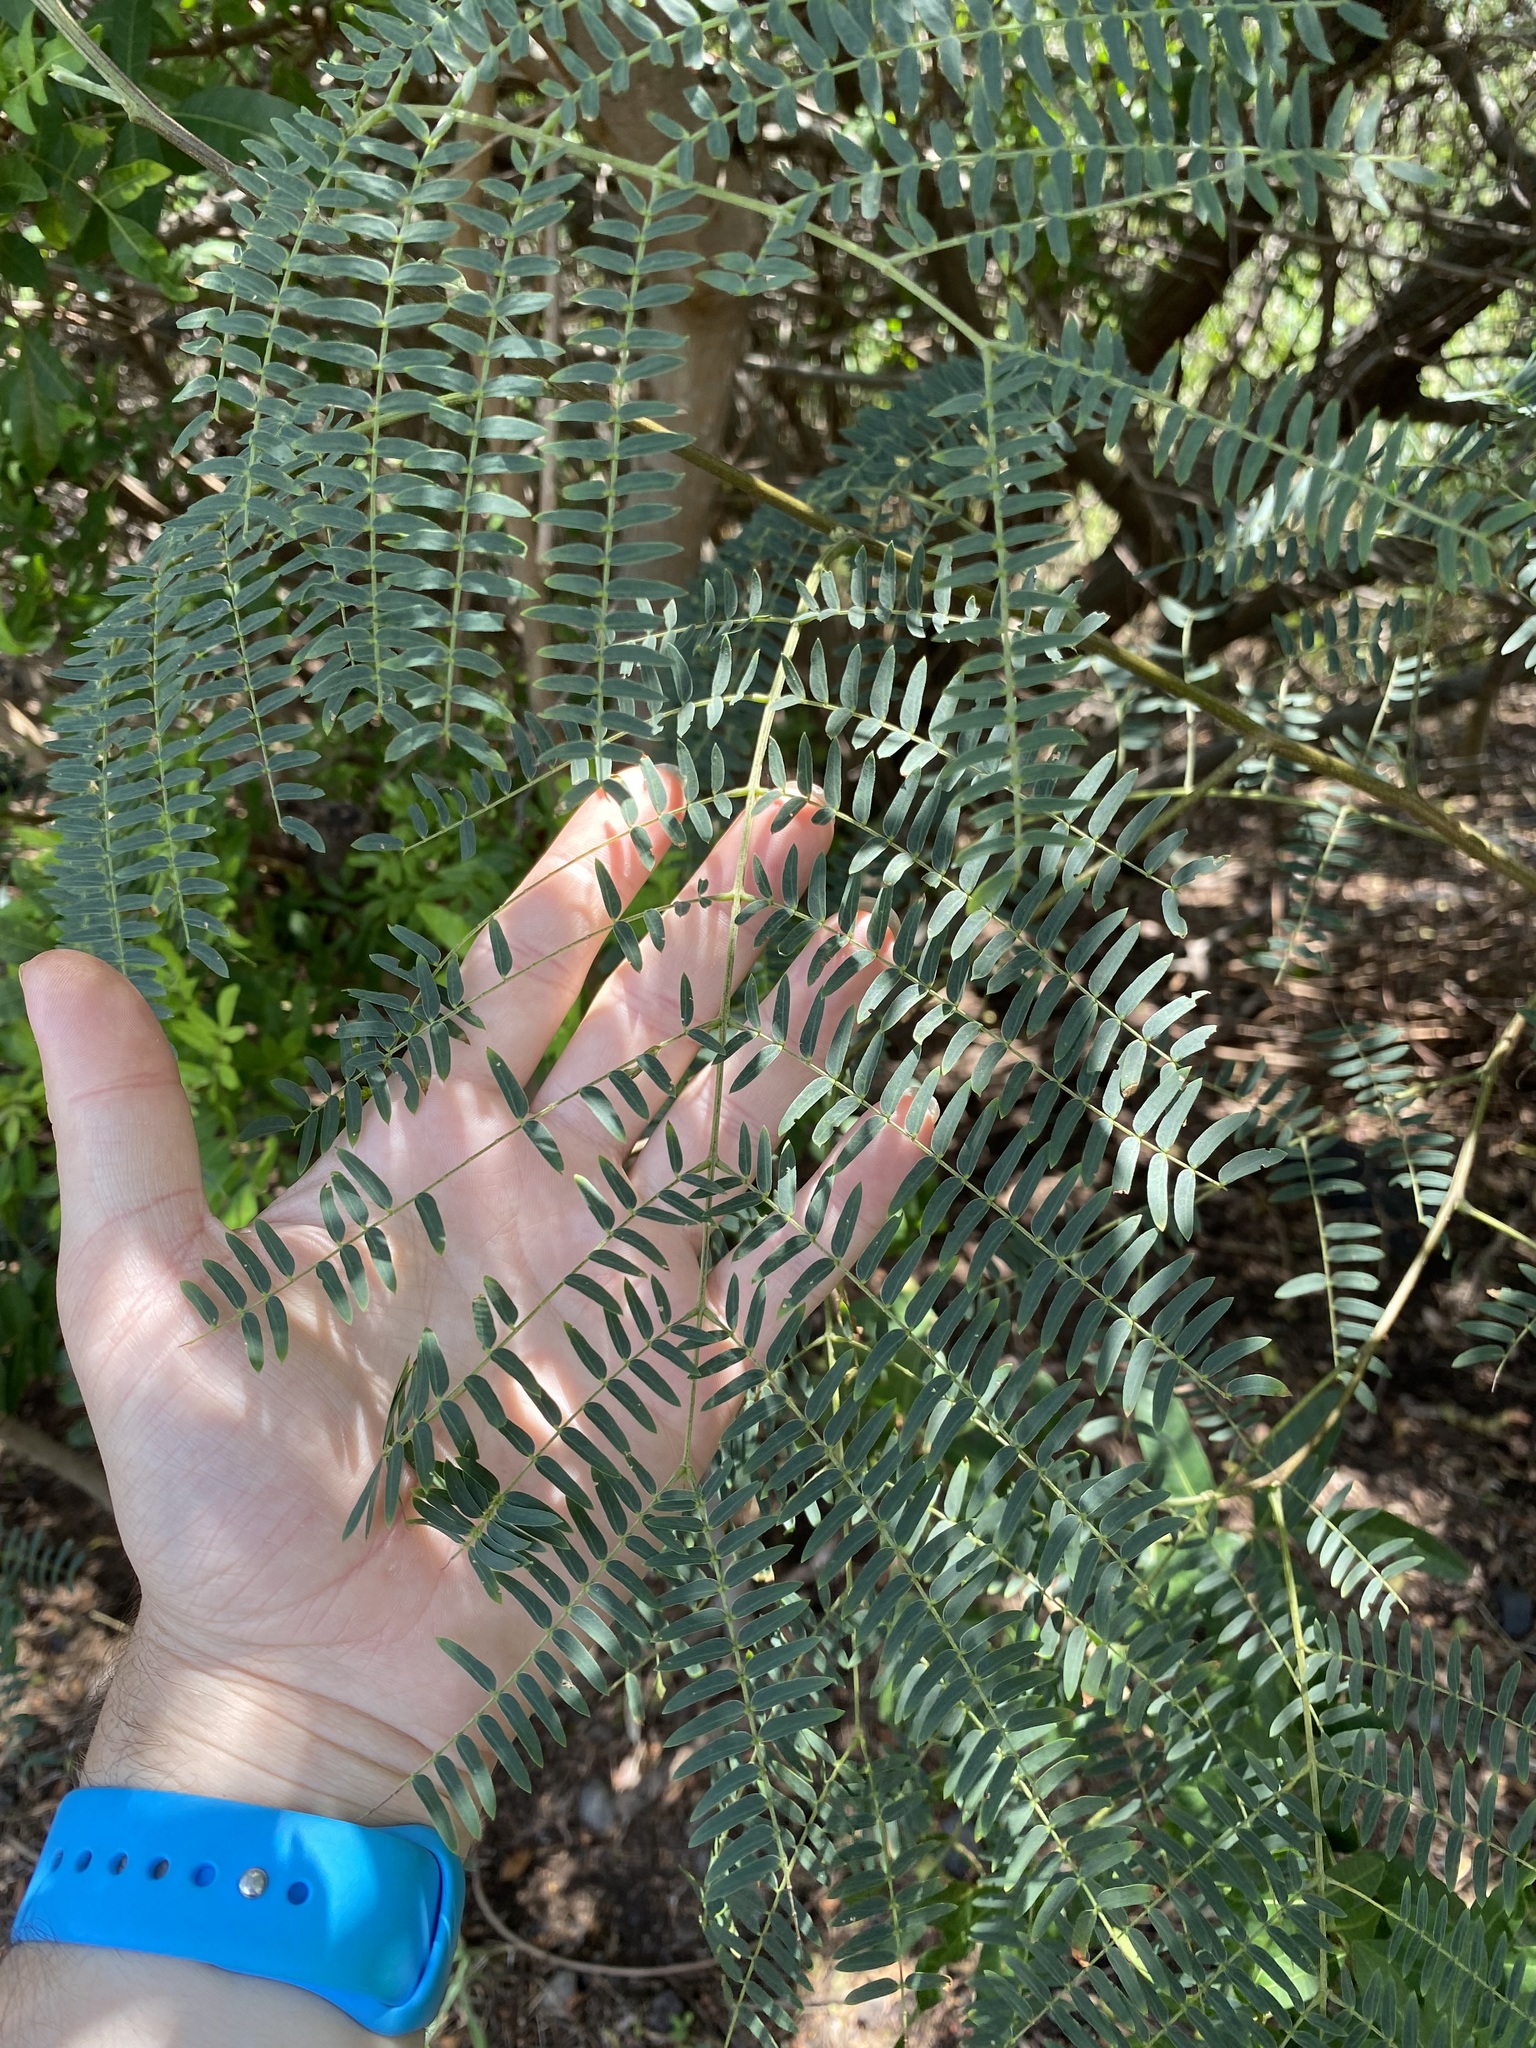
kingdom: Plantae
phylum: Tracheophyta
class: Magnoliopsida
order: Fabales
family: Fabaceae
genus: Leucaena
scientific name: Leucaena leucocephala
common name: White leadtree
